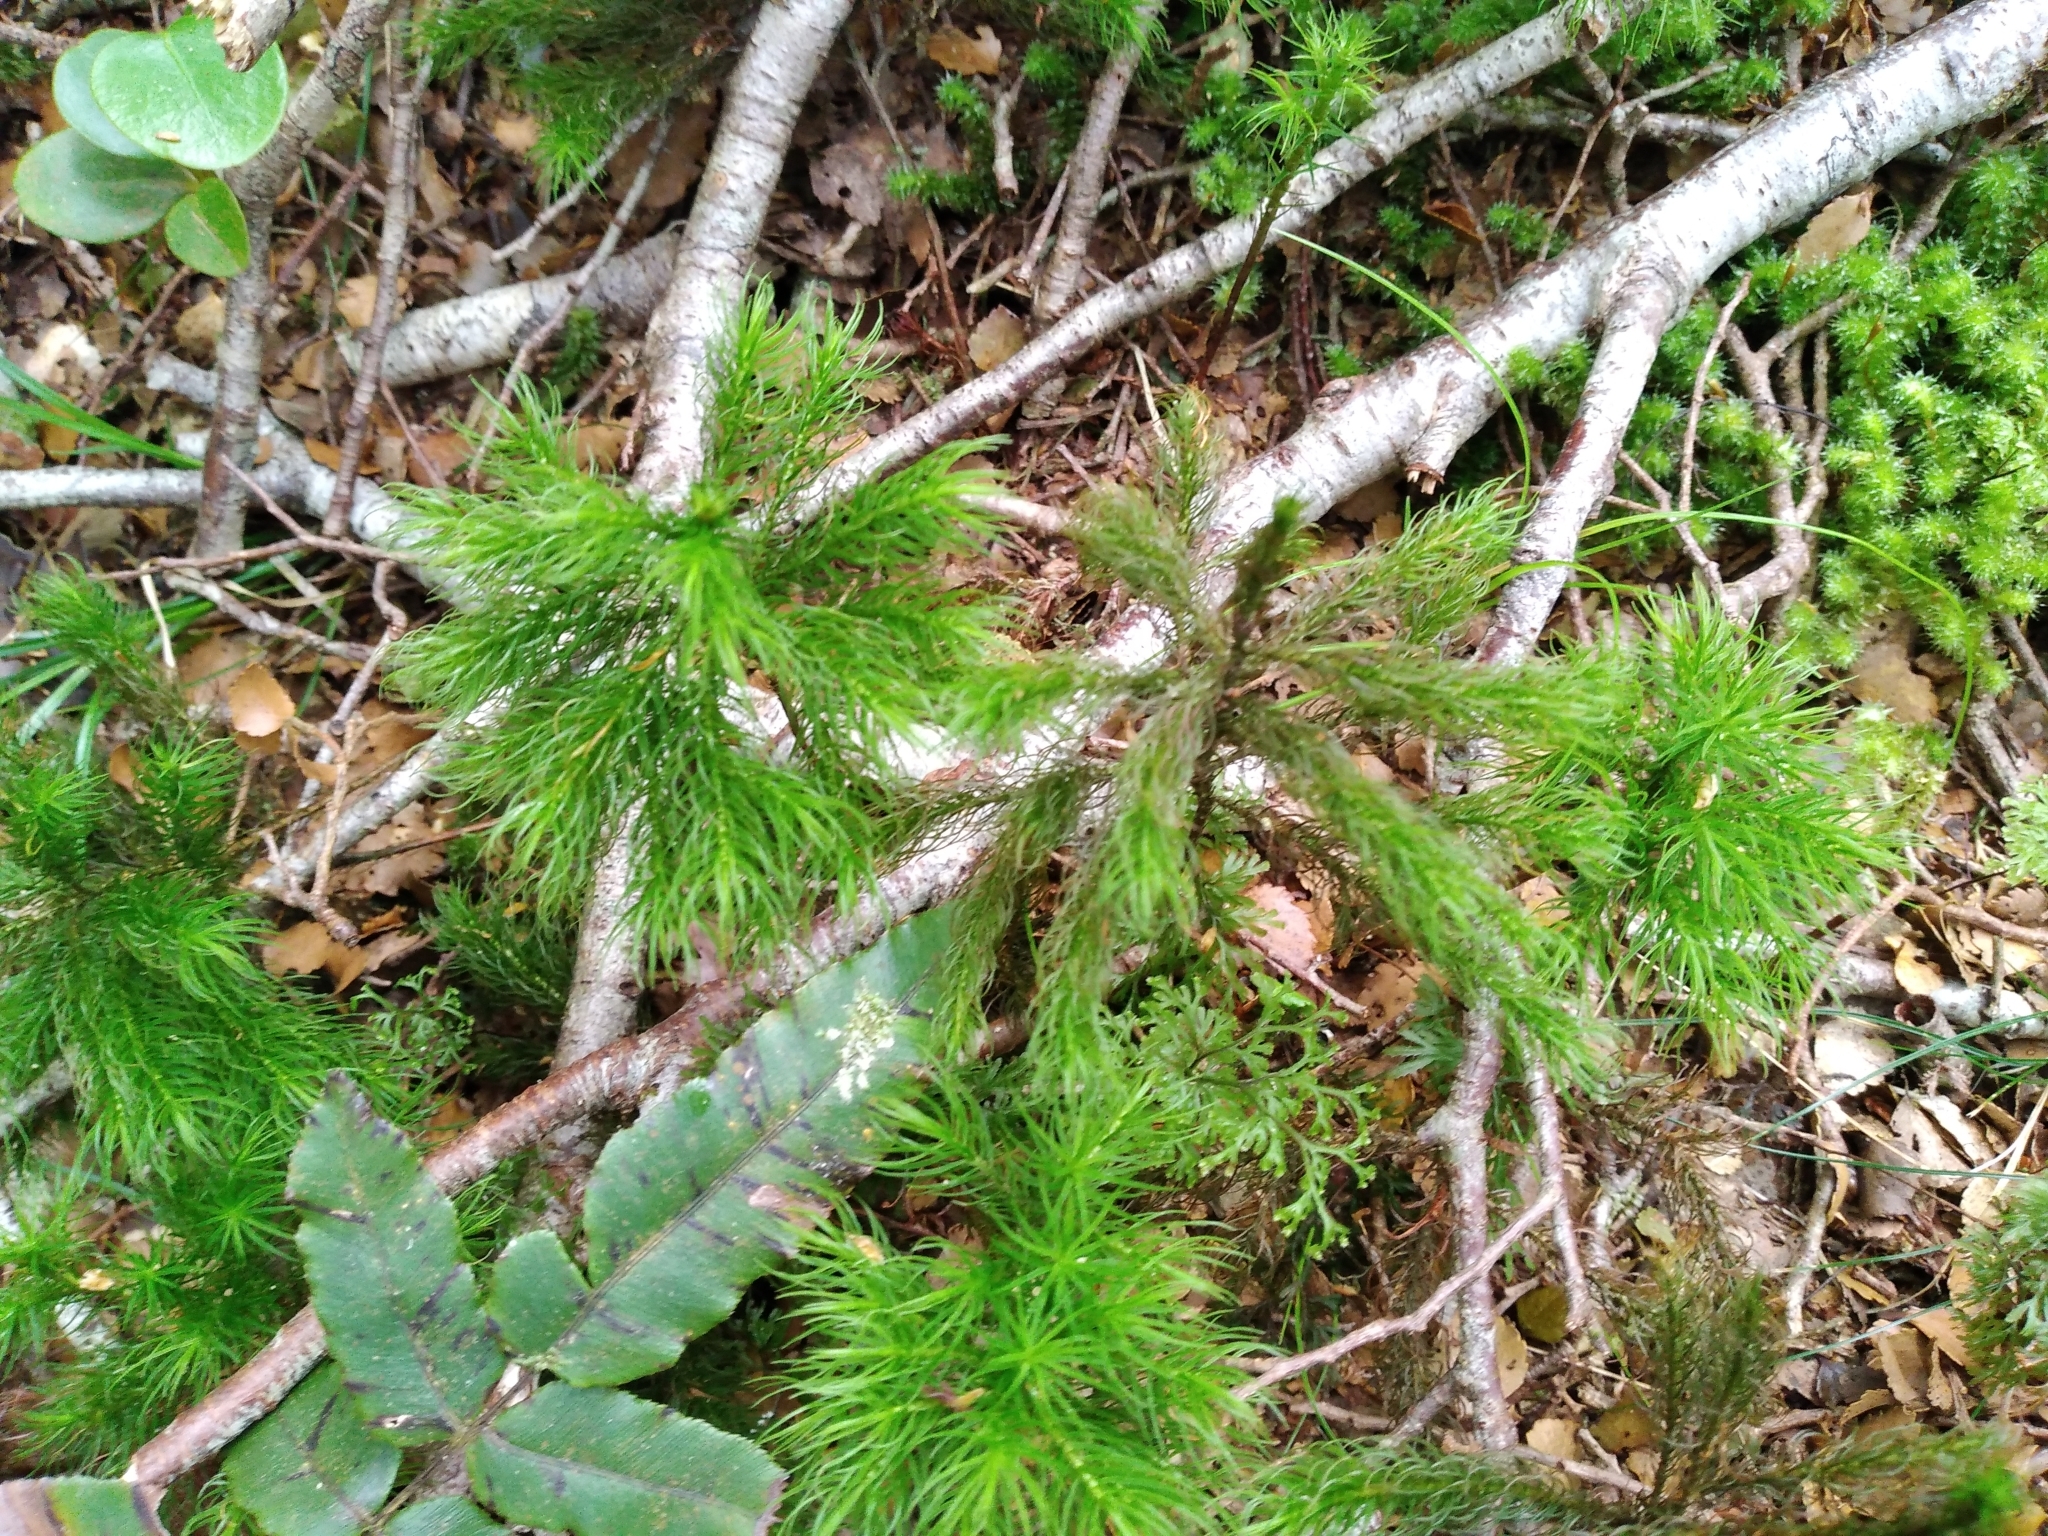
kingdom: Plantae
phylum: Bryophyta
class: Polytrichopsida
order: Polytrichales
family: Polytrichaceae
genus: Dendroligotrichum
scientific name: Dendroligotrichum tongariroense
